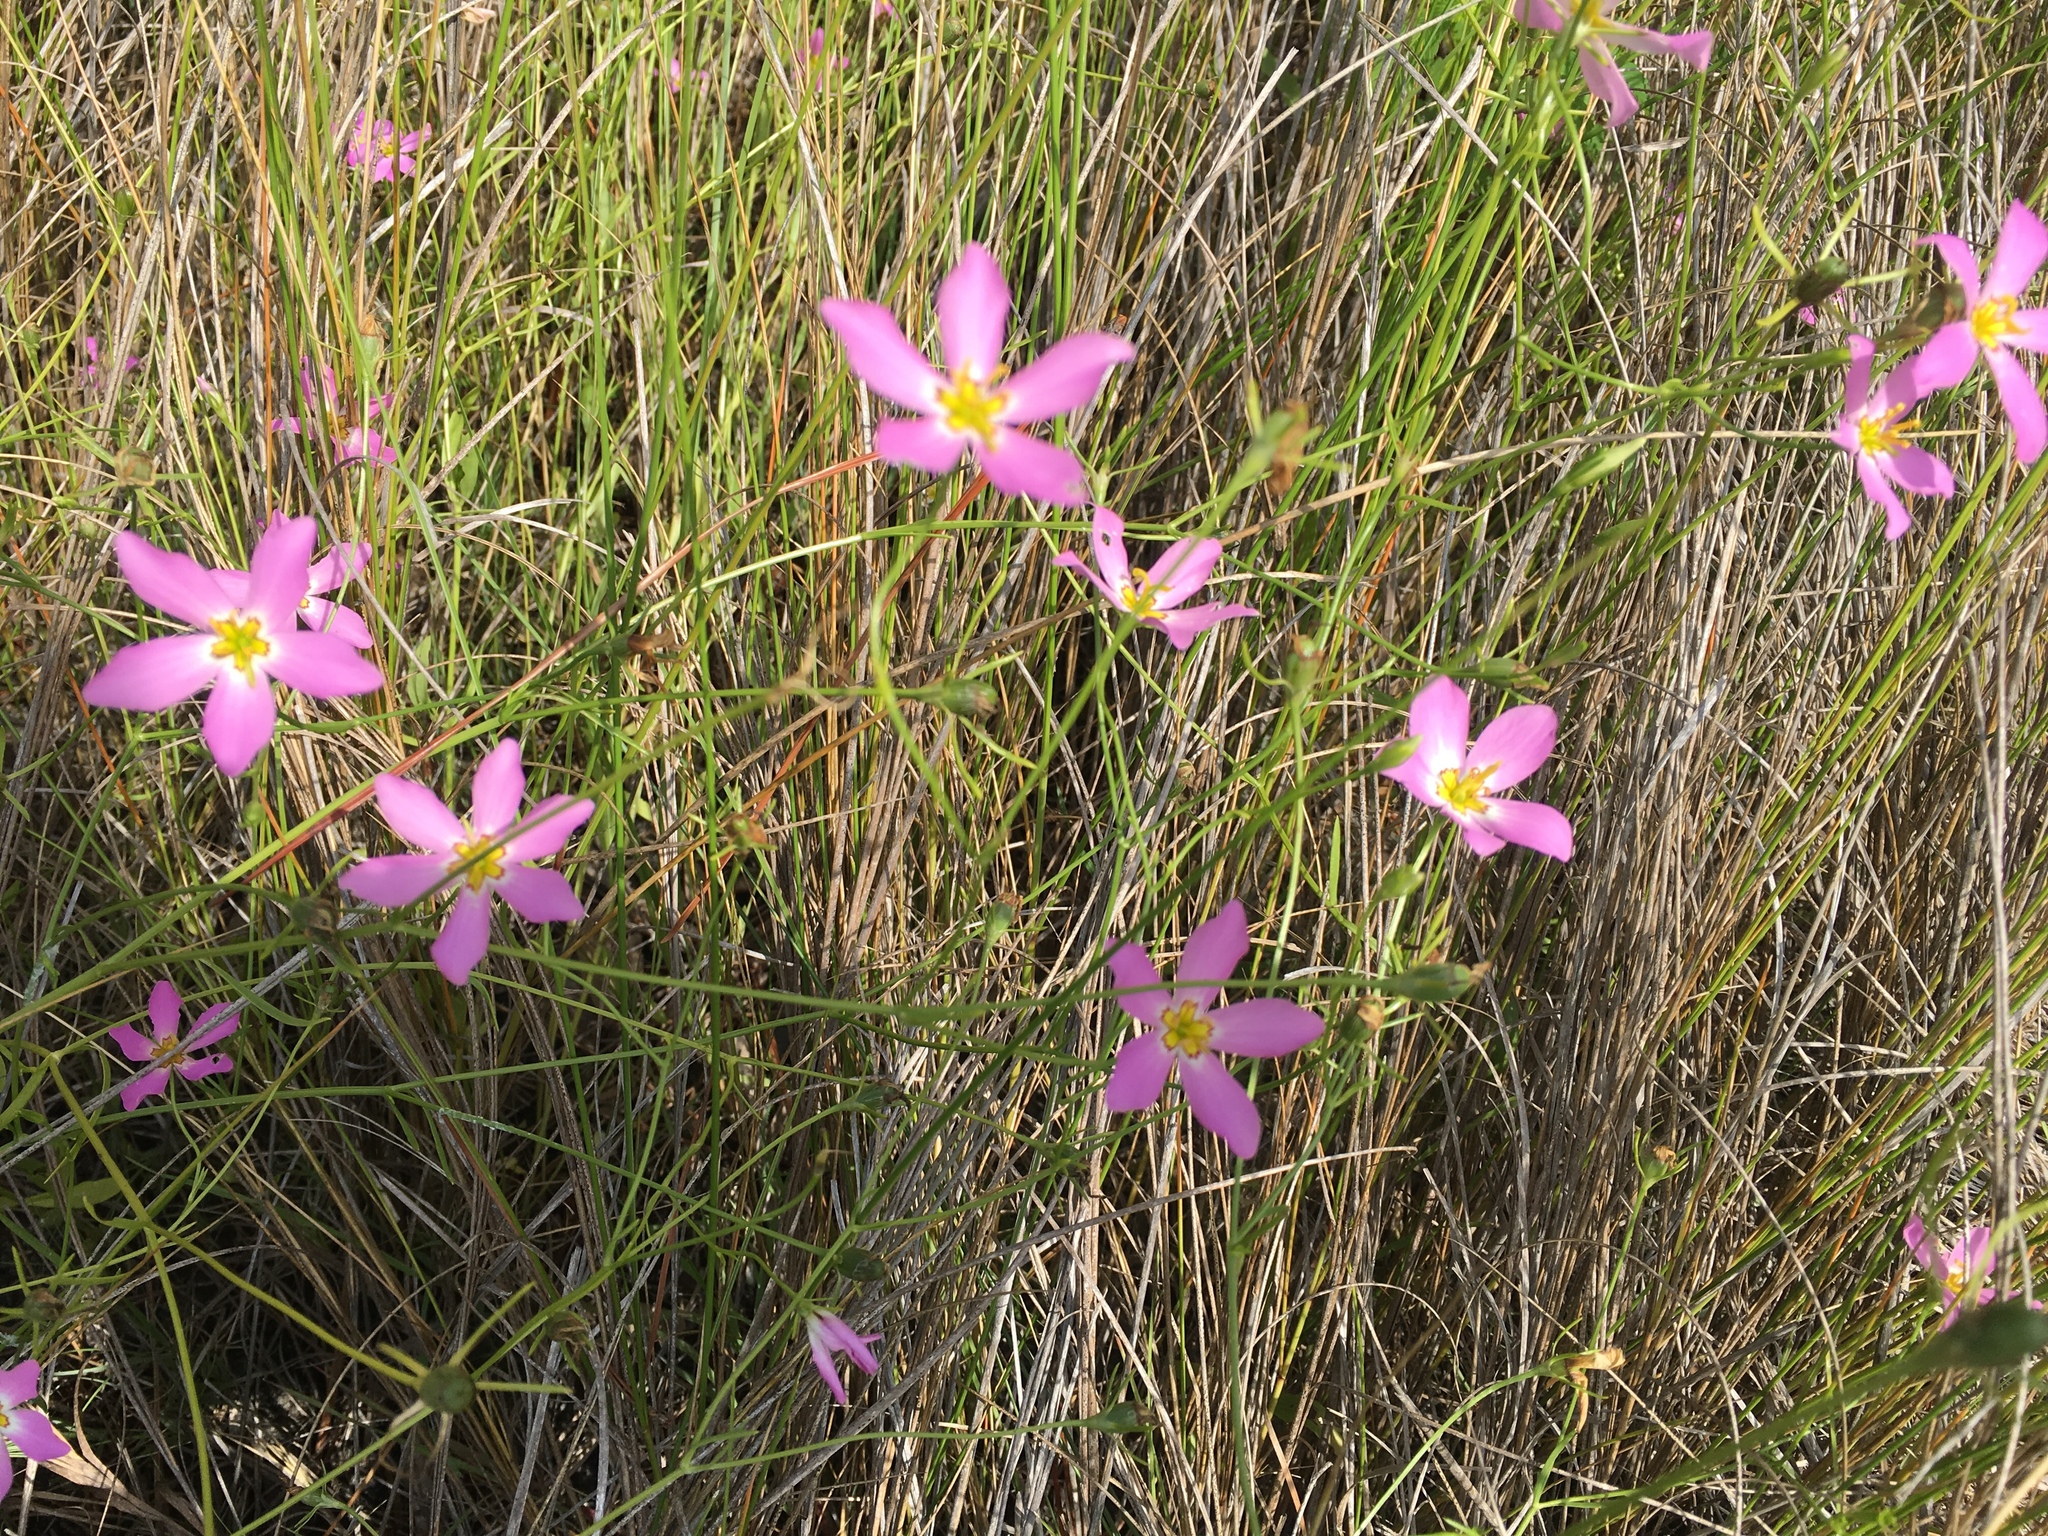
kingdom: Plantae
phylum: Tracheophyta
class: Magnoliopsida
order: Gentianales
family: Gentianaceae
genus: Sabatia
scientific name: Sabatia stellaris
